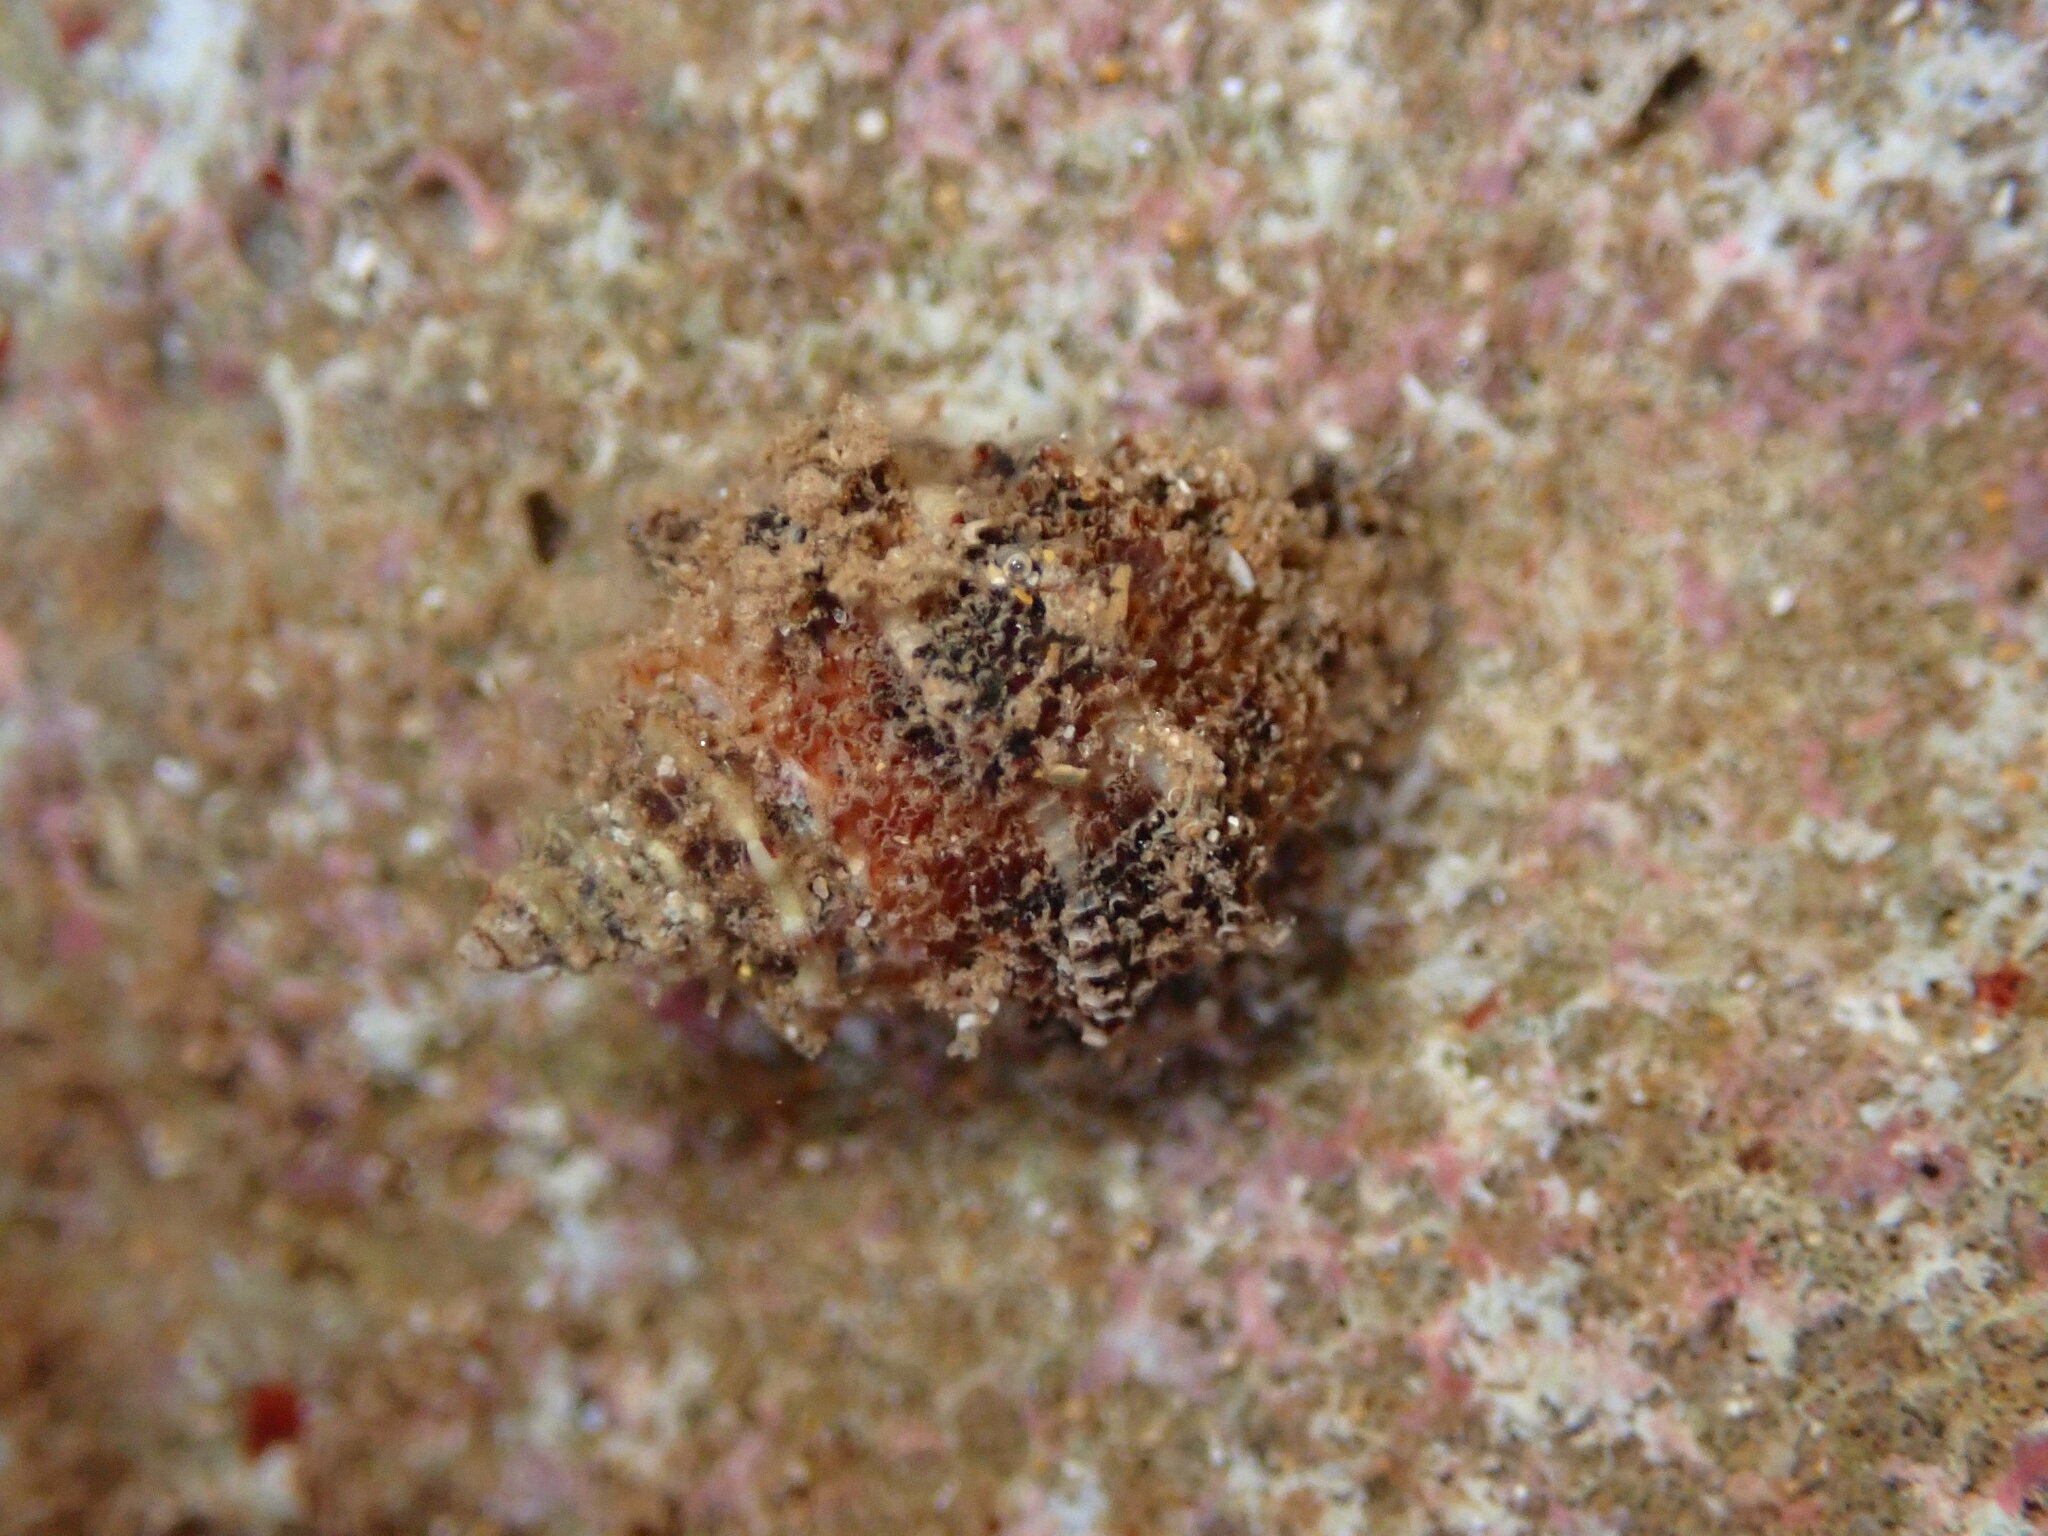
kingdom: Animalia
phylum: Mollusca
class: Gastropoda
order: Neogastropoda
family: Muricidae
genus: Semiricinula
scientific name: Semiricinula turbinoides
